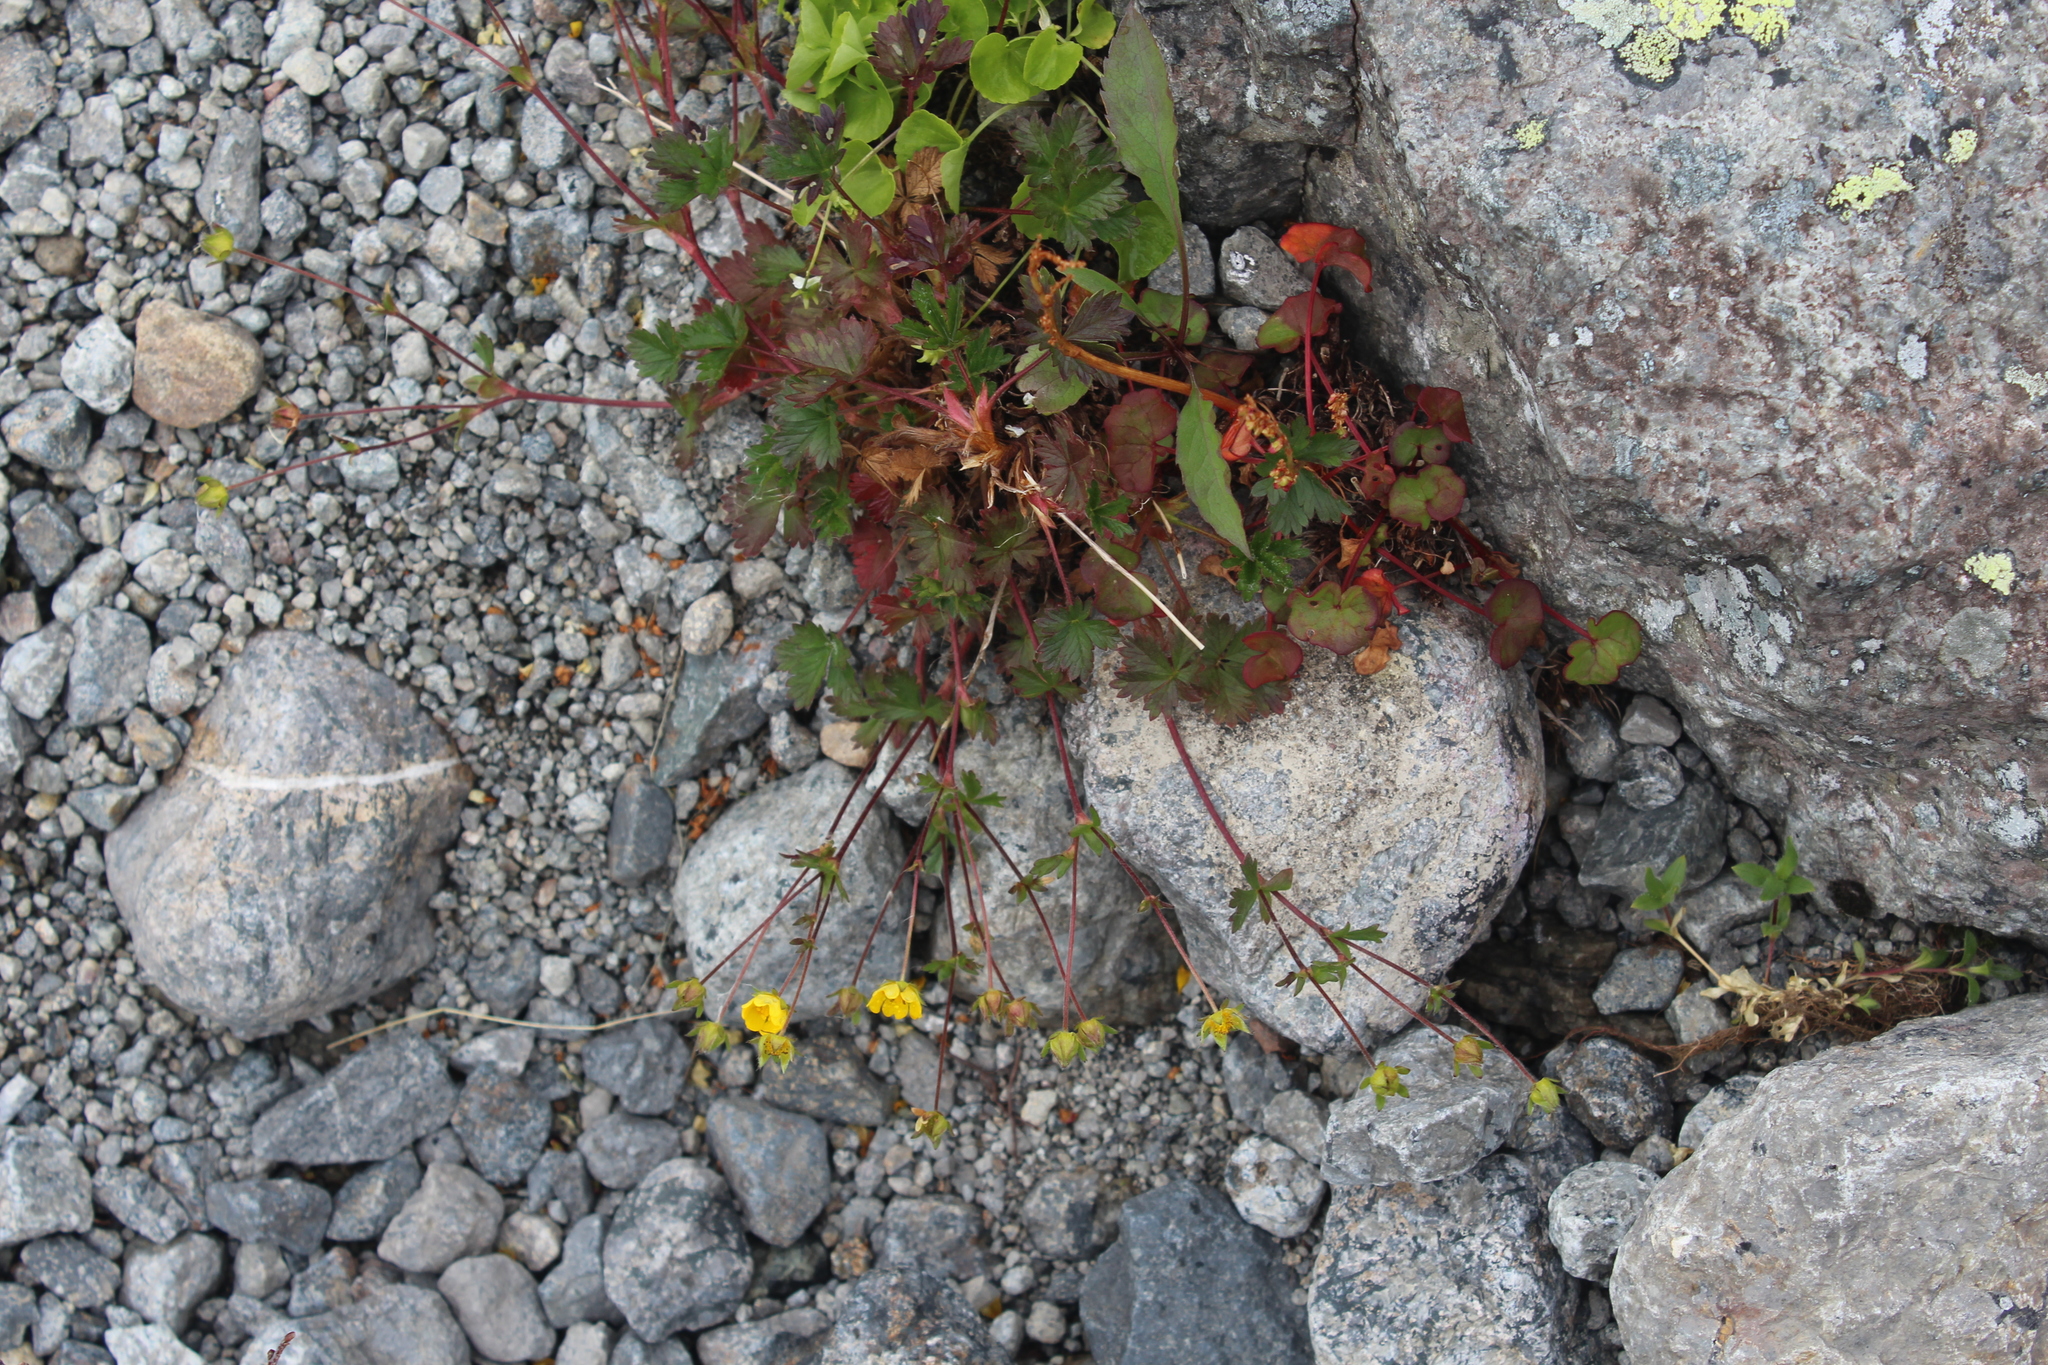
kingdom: Plantae
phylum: Tracheophyta
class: Magnoliopsida
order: Rosales
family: Rosaceae
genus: Potentilla
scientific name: Potentilla crantzii
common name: Alpine cinquefoil
